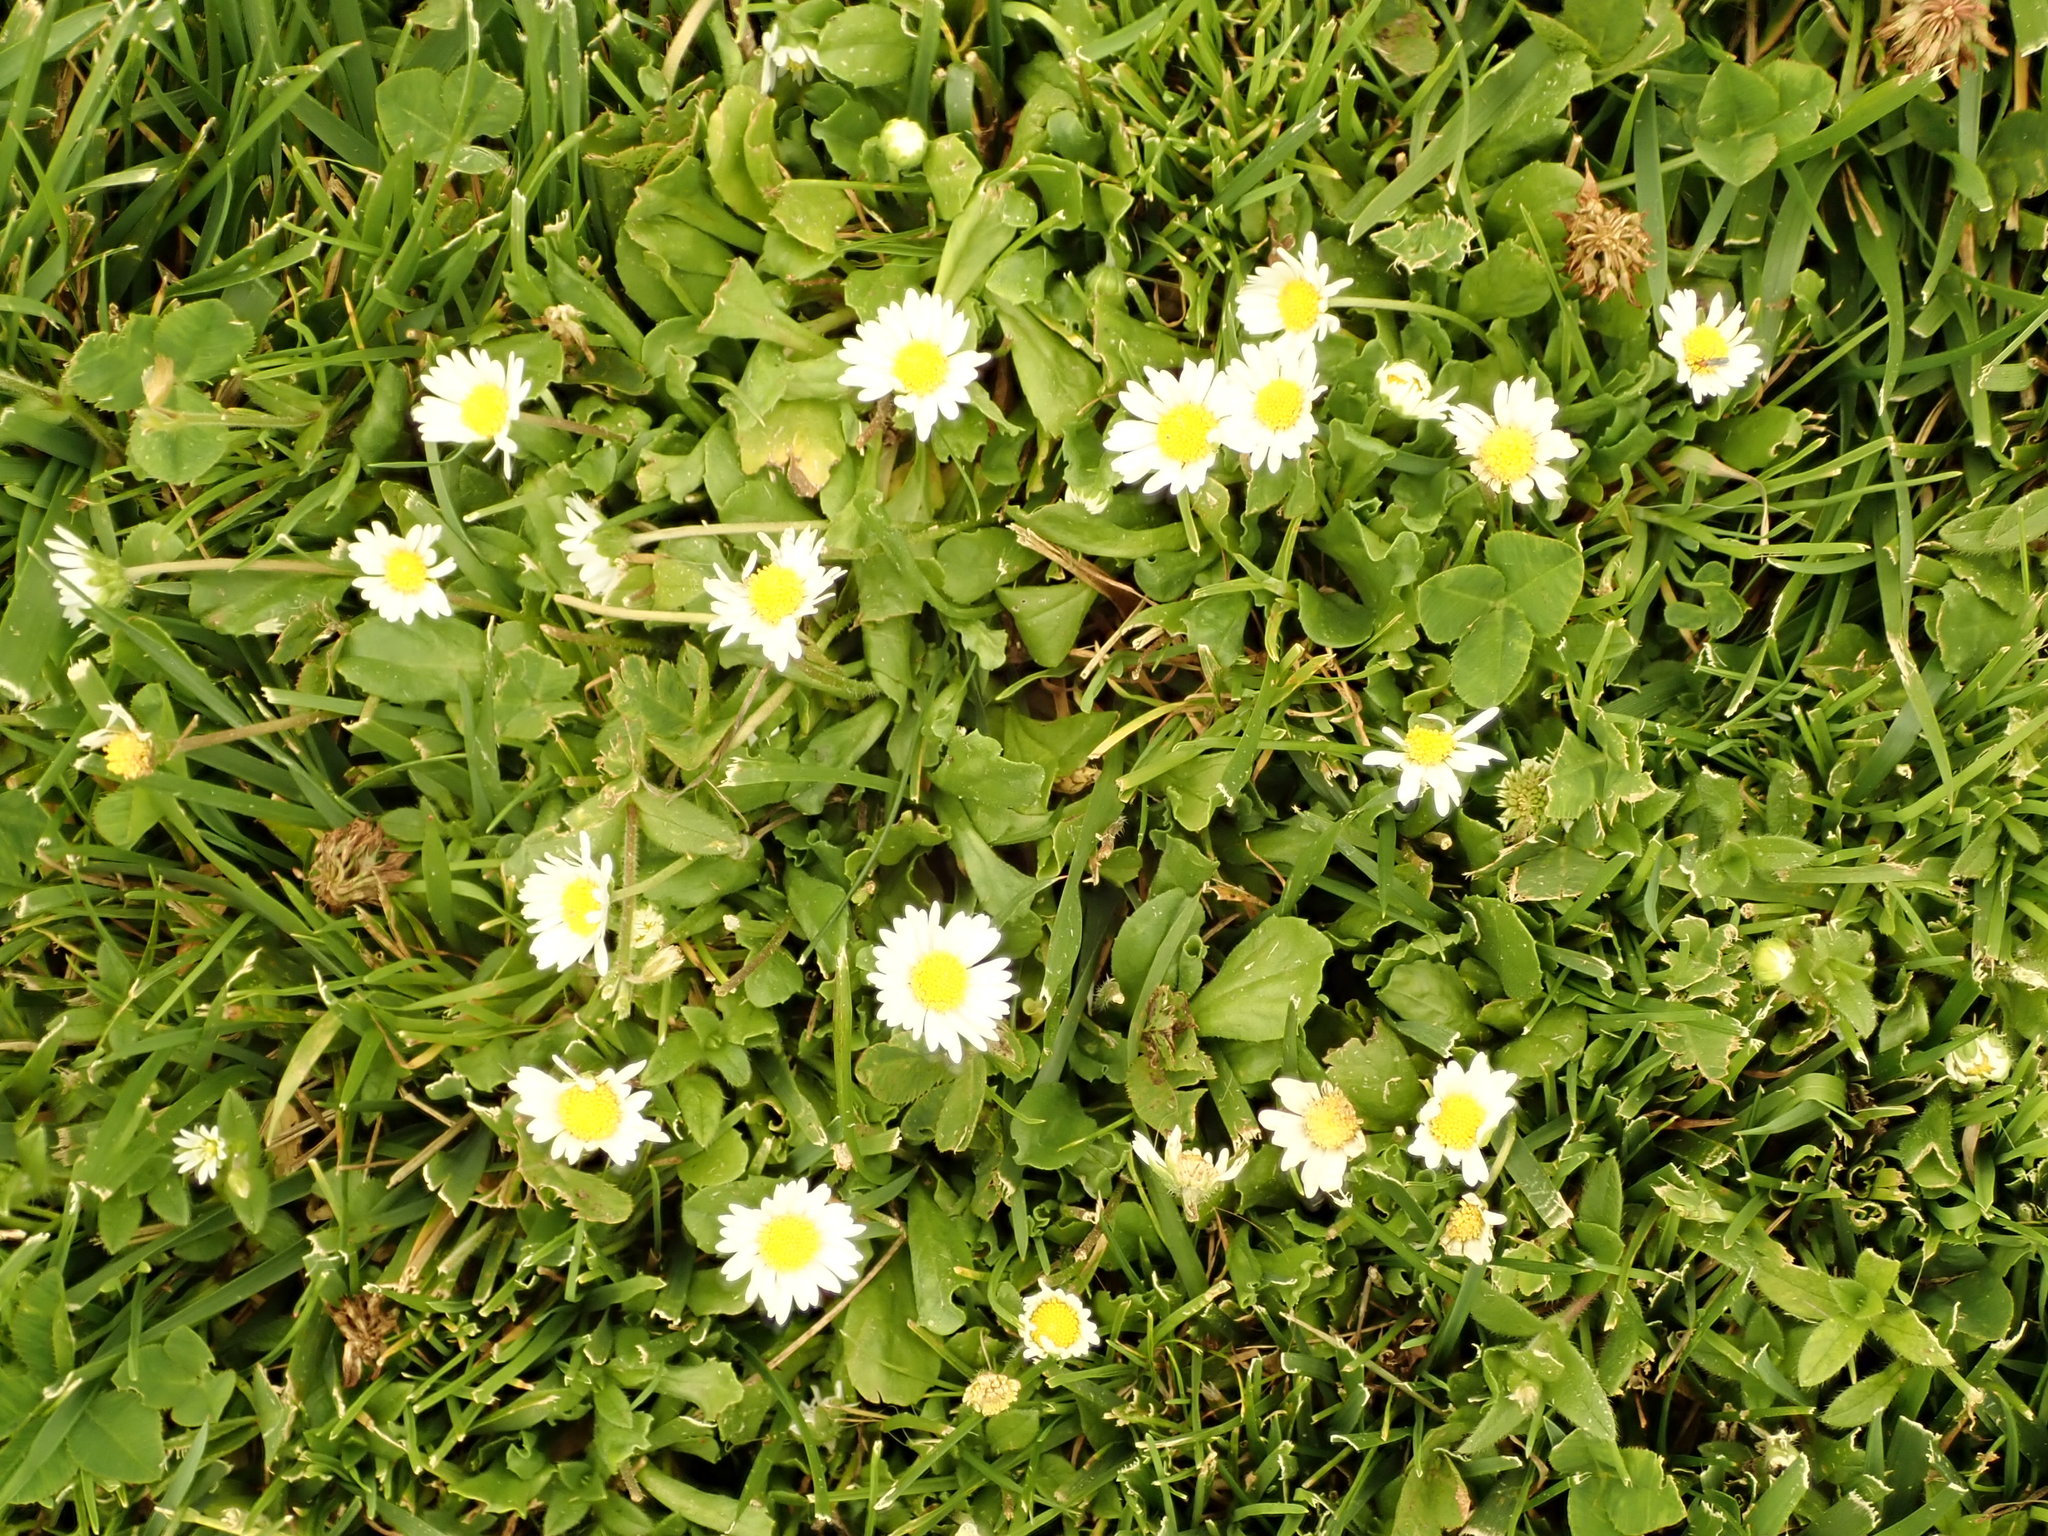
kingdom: Plantae
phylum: Tracheophyta
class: Magnoliopsida
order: Asterales
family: Asteraceae
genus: Bellis
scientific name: Bellis perennis
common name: Lawndaisy
